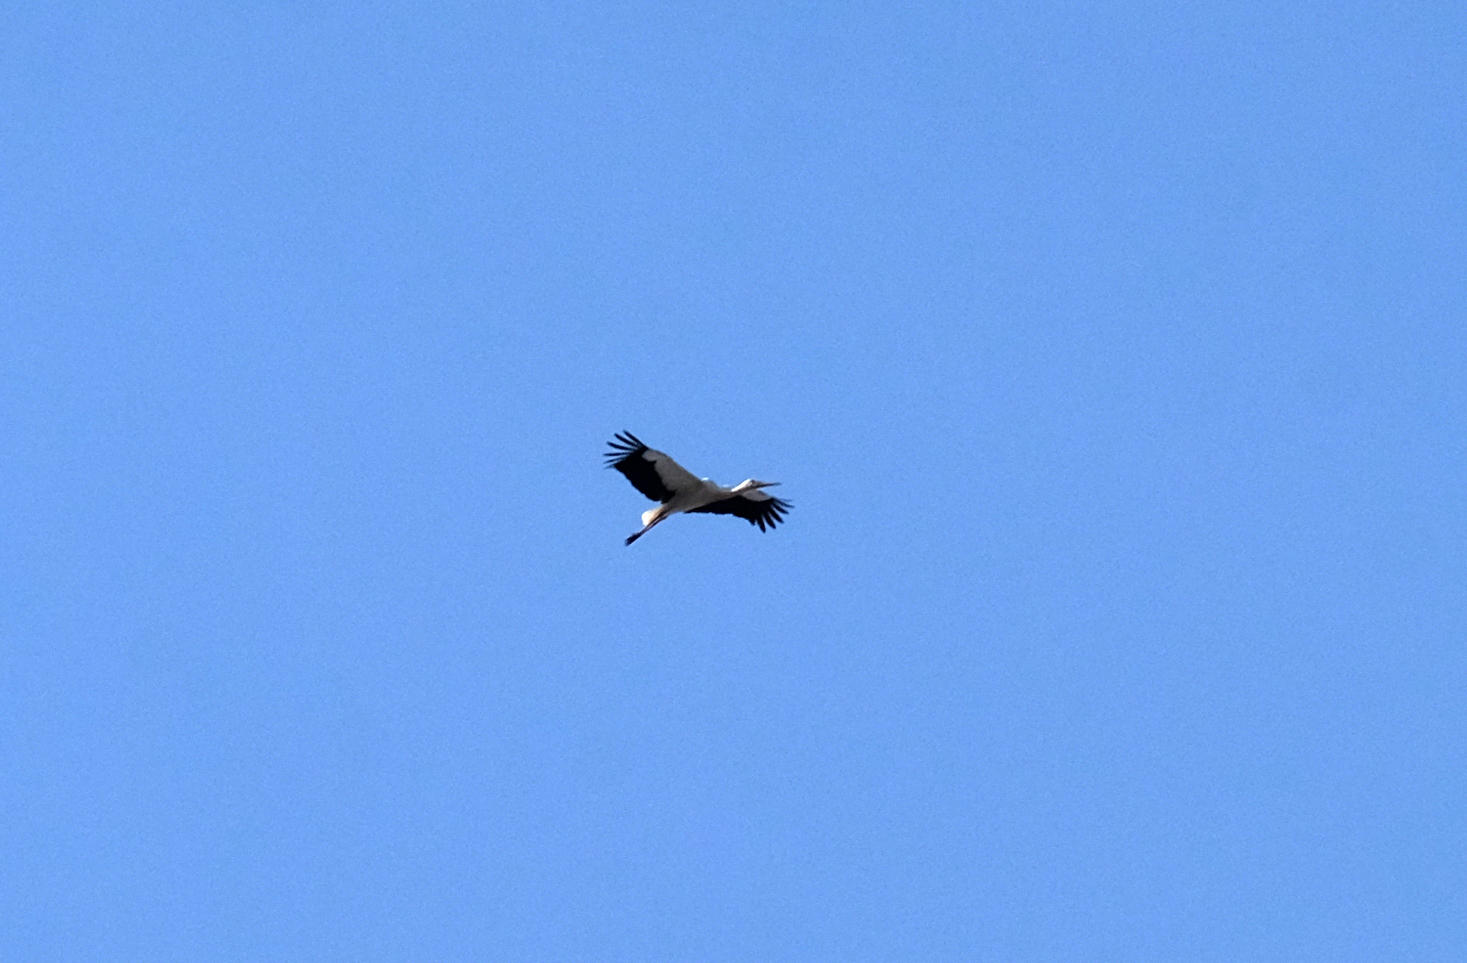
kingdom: Animalia
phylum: Chordata
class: Aves
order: Ciconiiformes
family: Ciconiidae
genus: Ciconia
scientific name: Ciconia ciconia
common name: White stork
